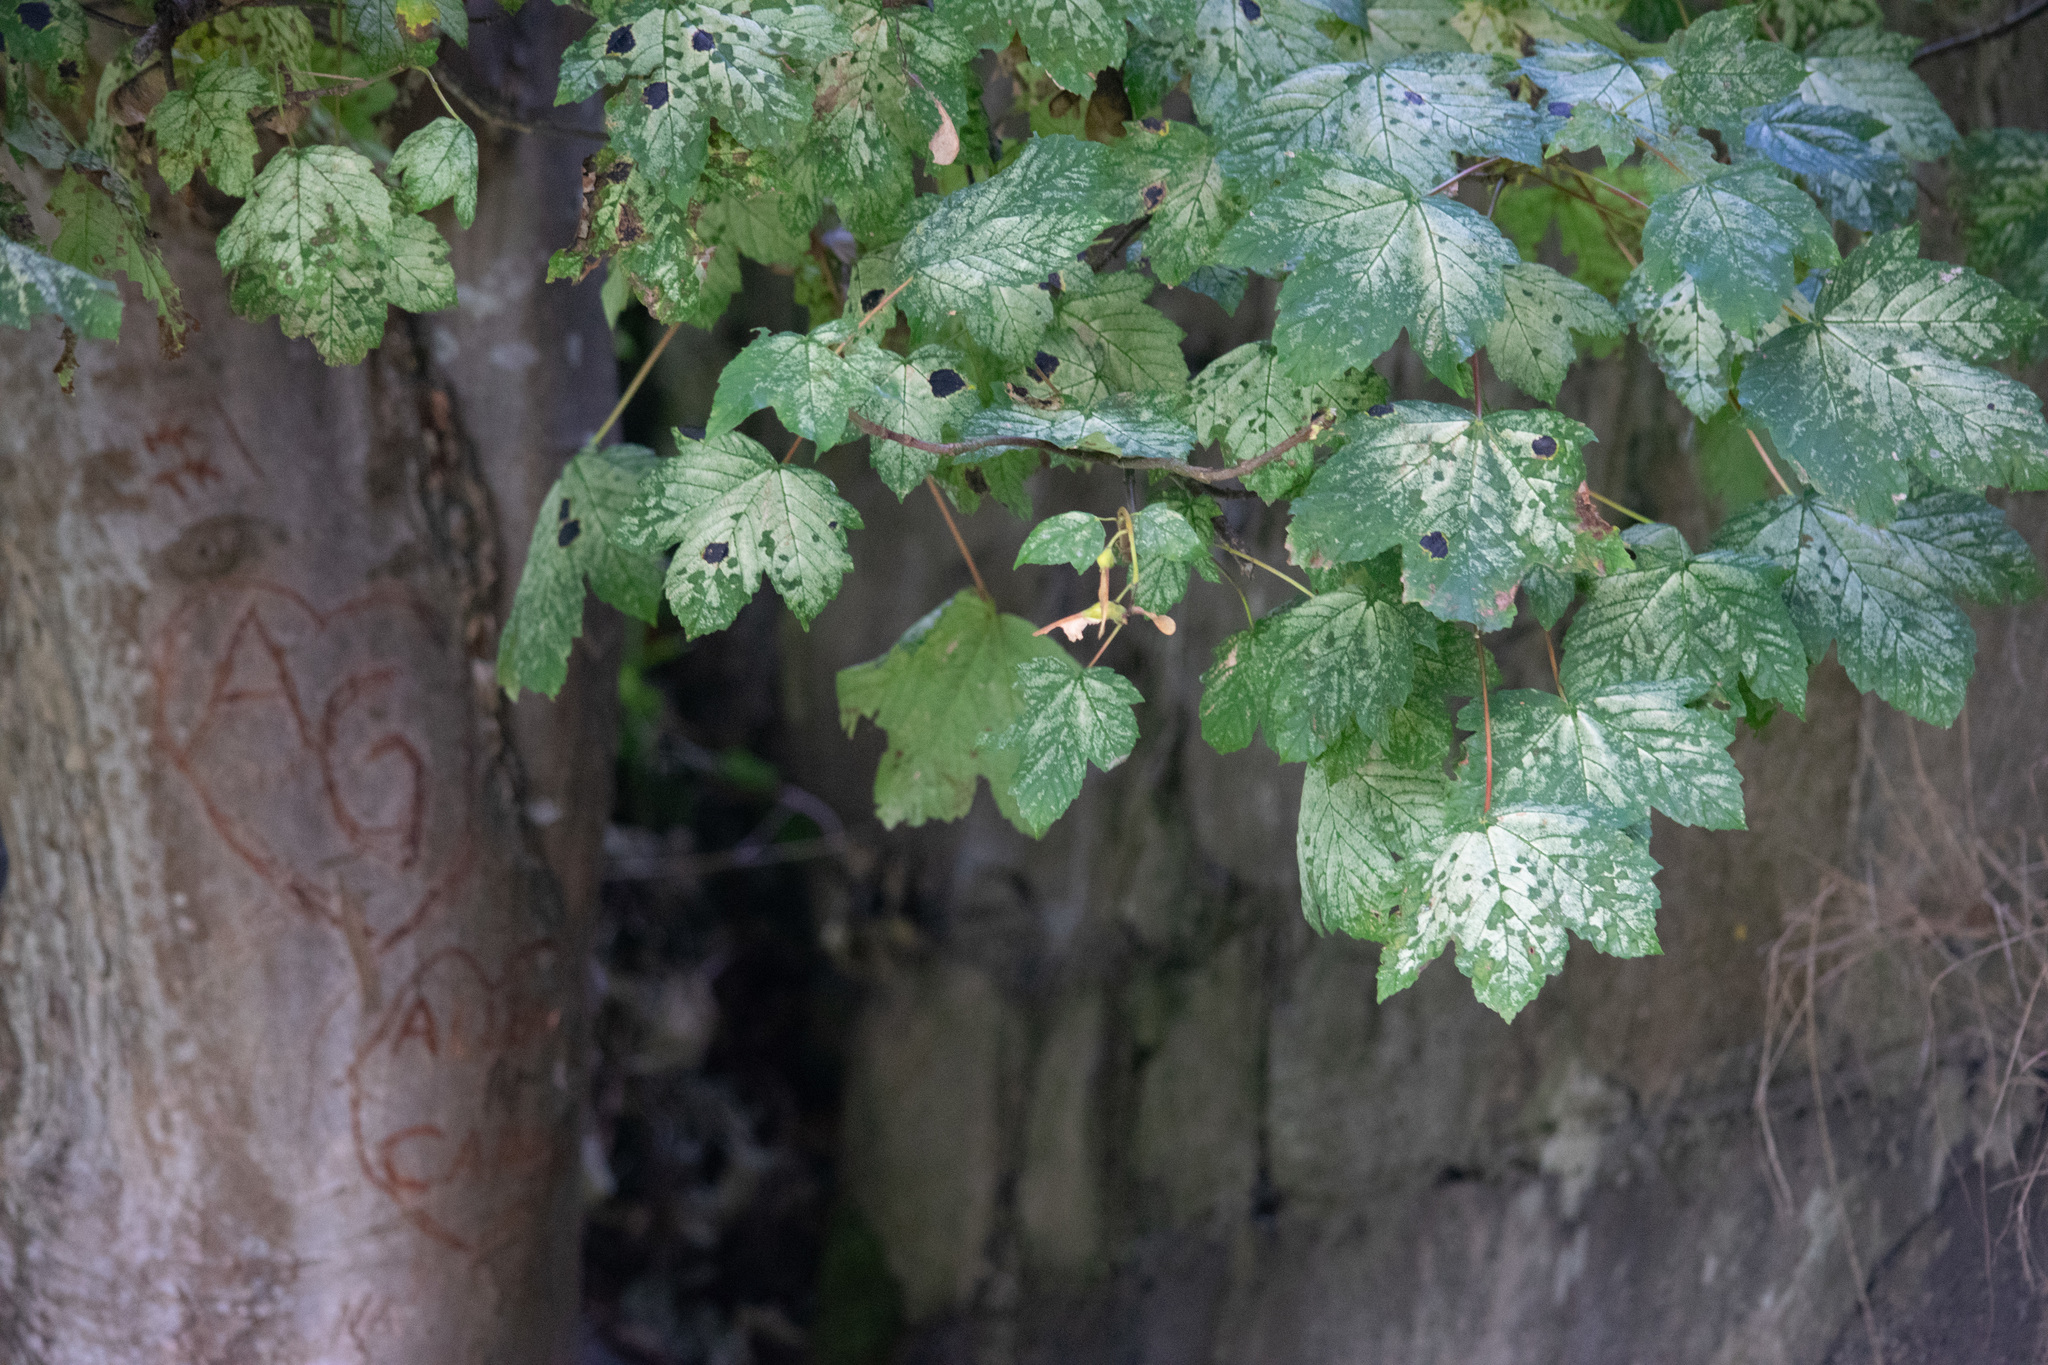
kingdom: Plantae
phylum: Tracheophyta
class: Magnoliopsida
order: Sapindales
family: Sapindaceae
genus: Acer
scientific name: Acer pseudoplatanus
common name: Sycamore
